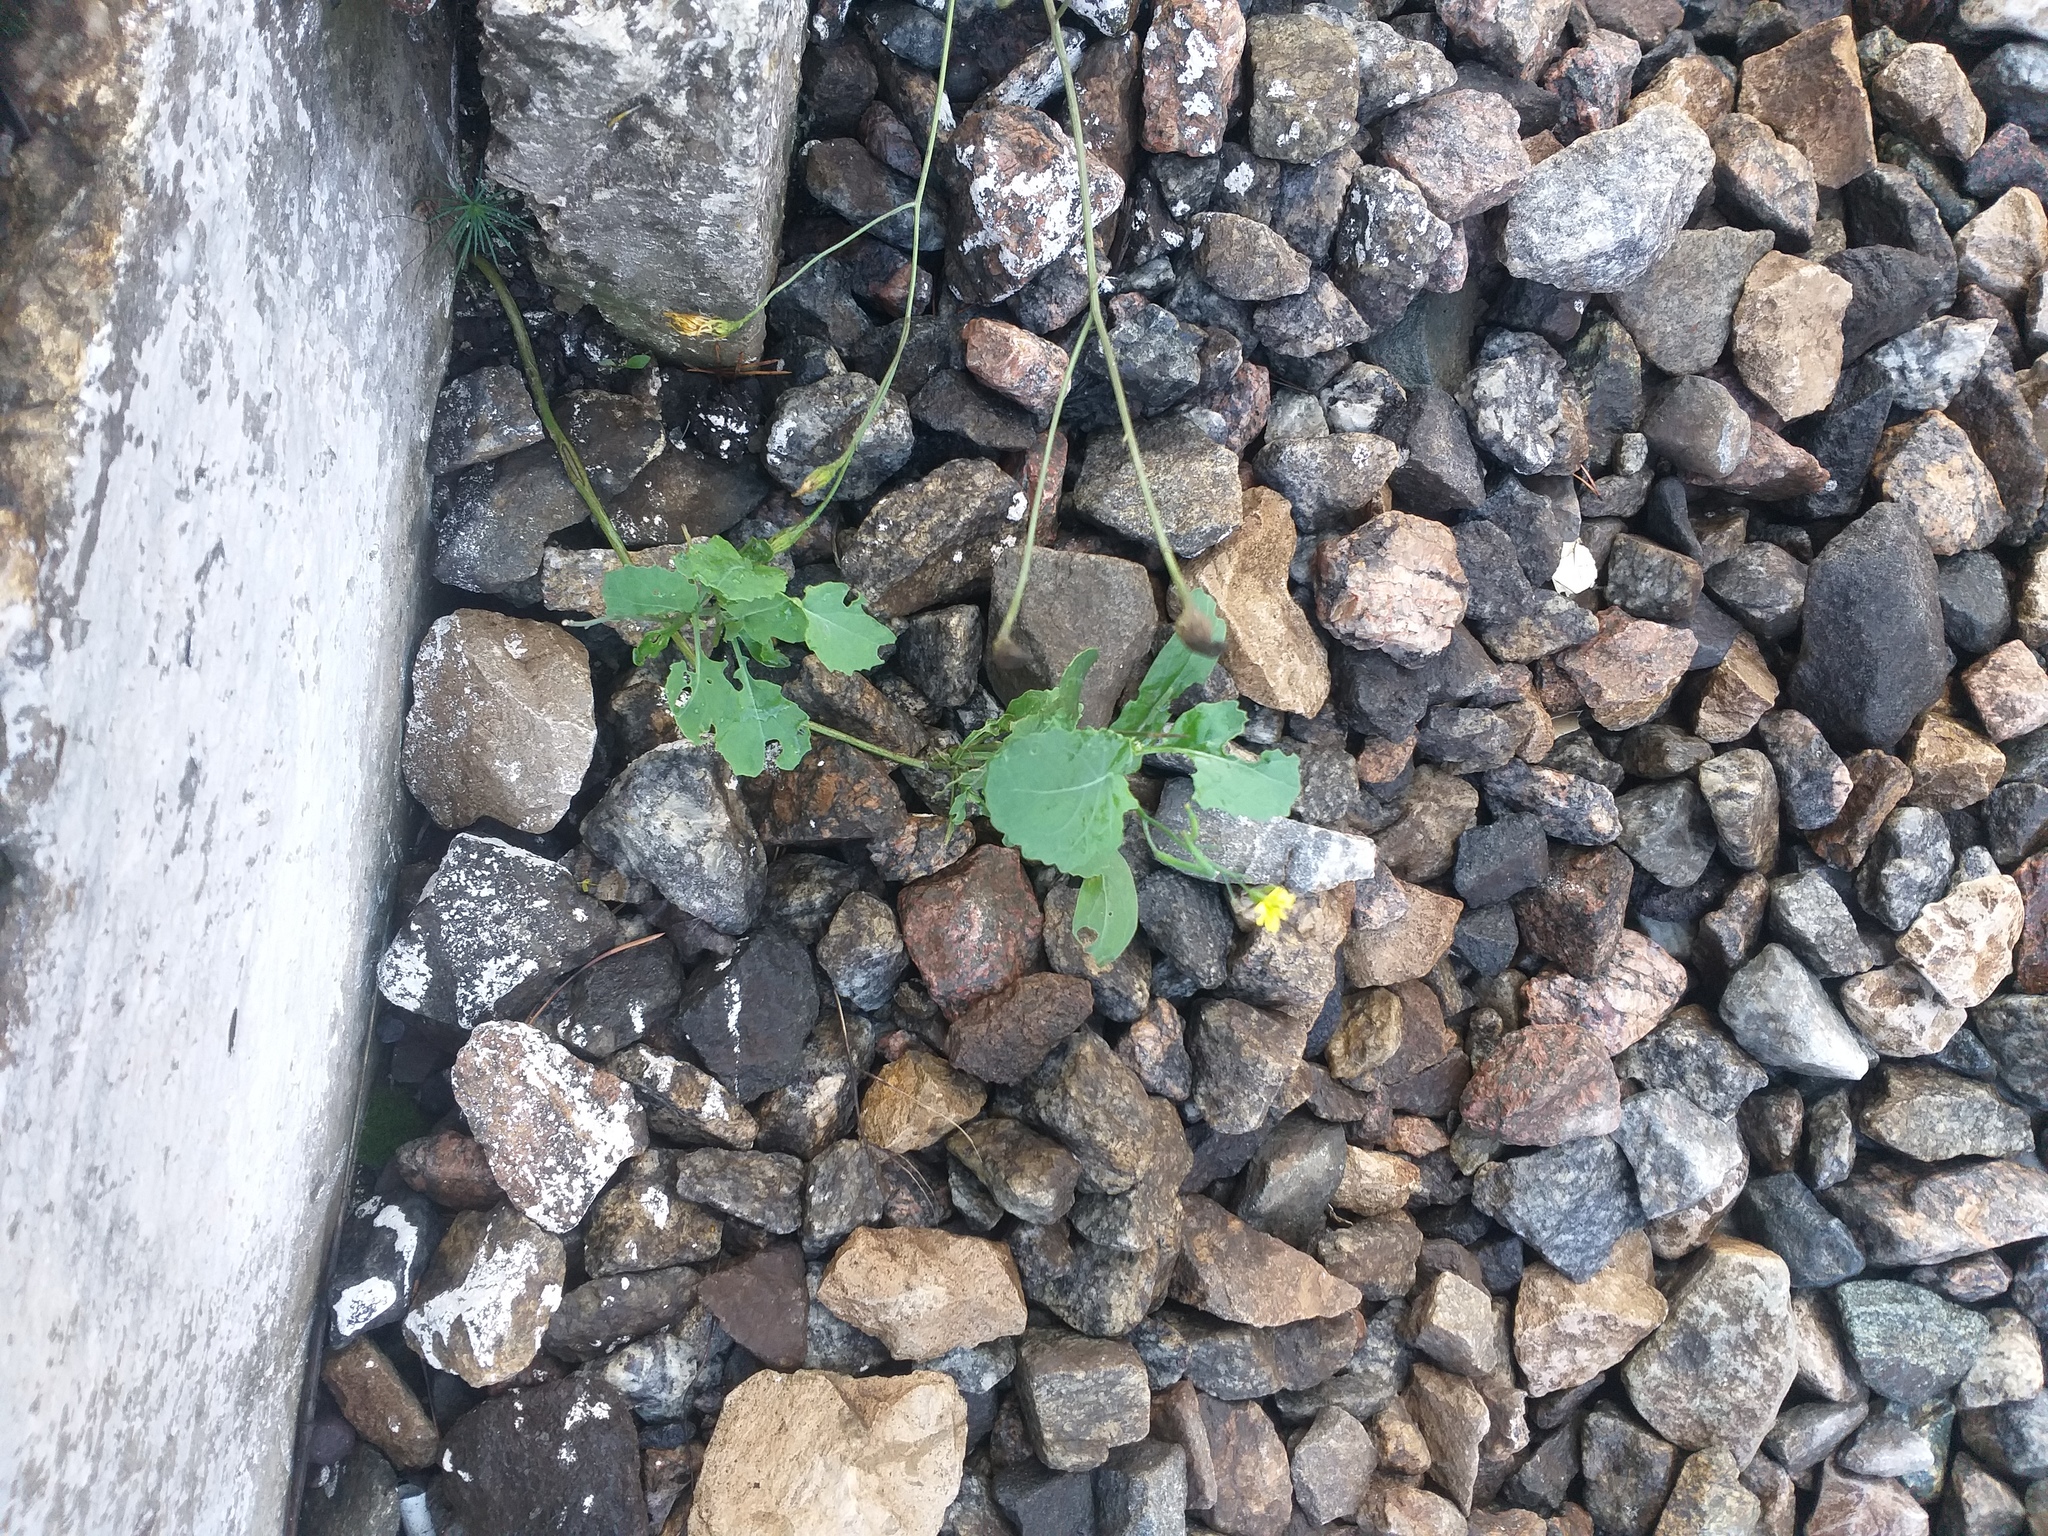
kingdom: Plantae
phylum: Tracheophyta
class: Magnoliopsida
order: Brassicales
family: Brassicaceae
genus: Brassica
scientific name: Brassica napus
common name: Rape
